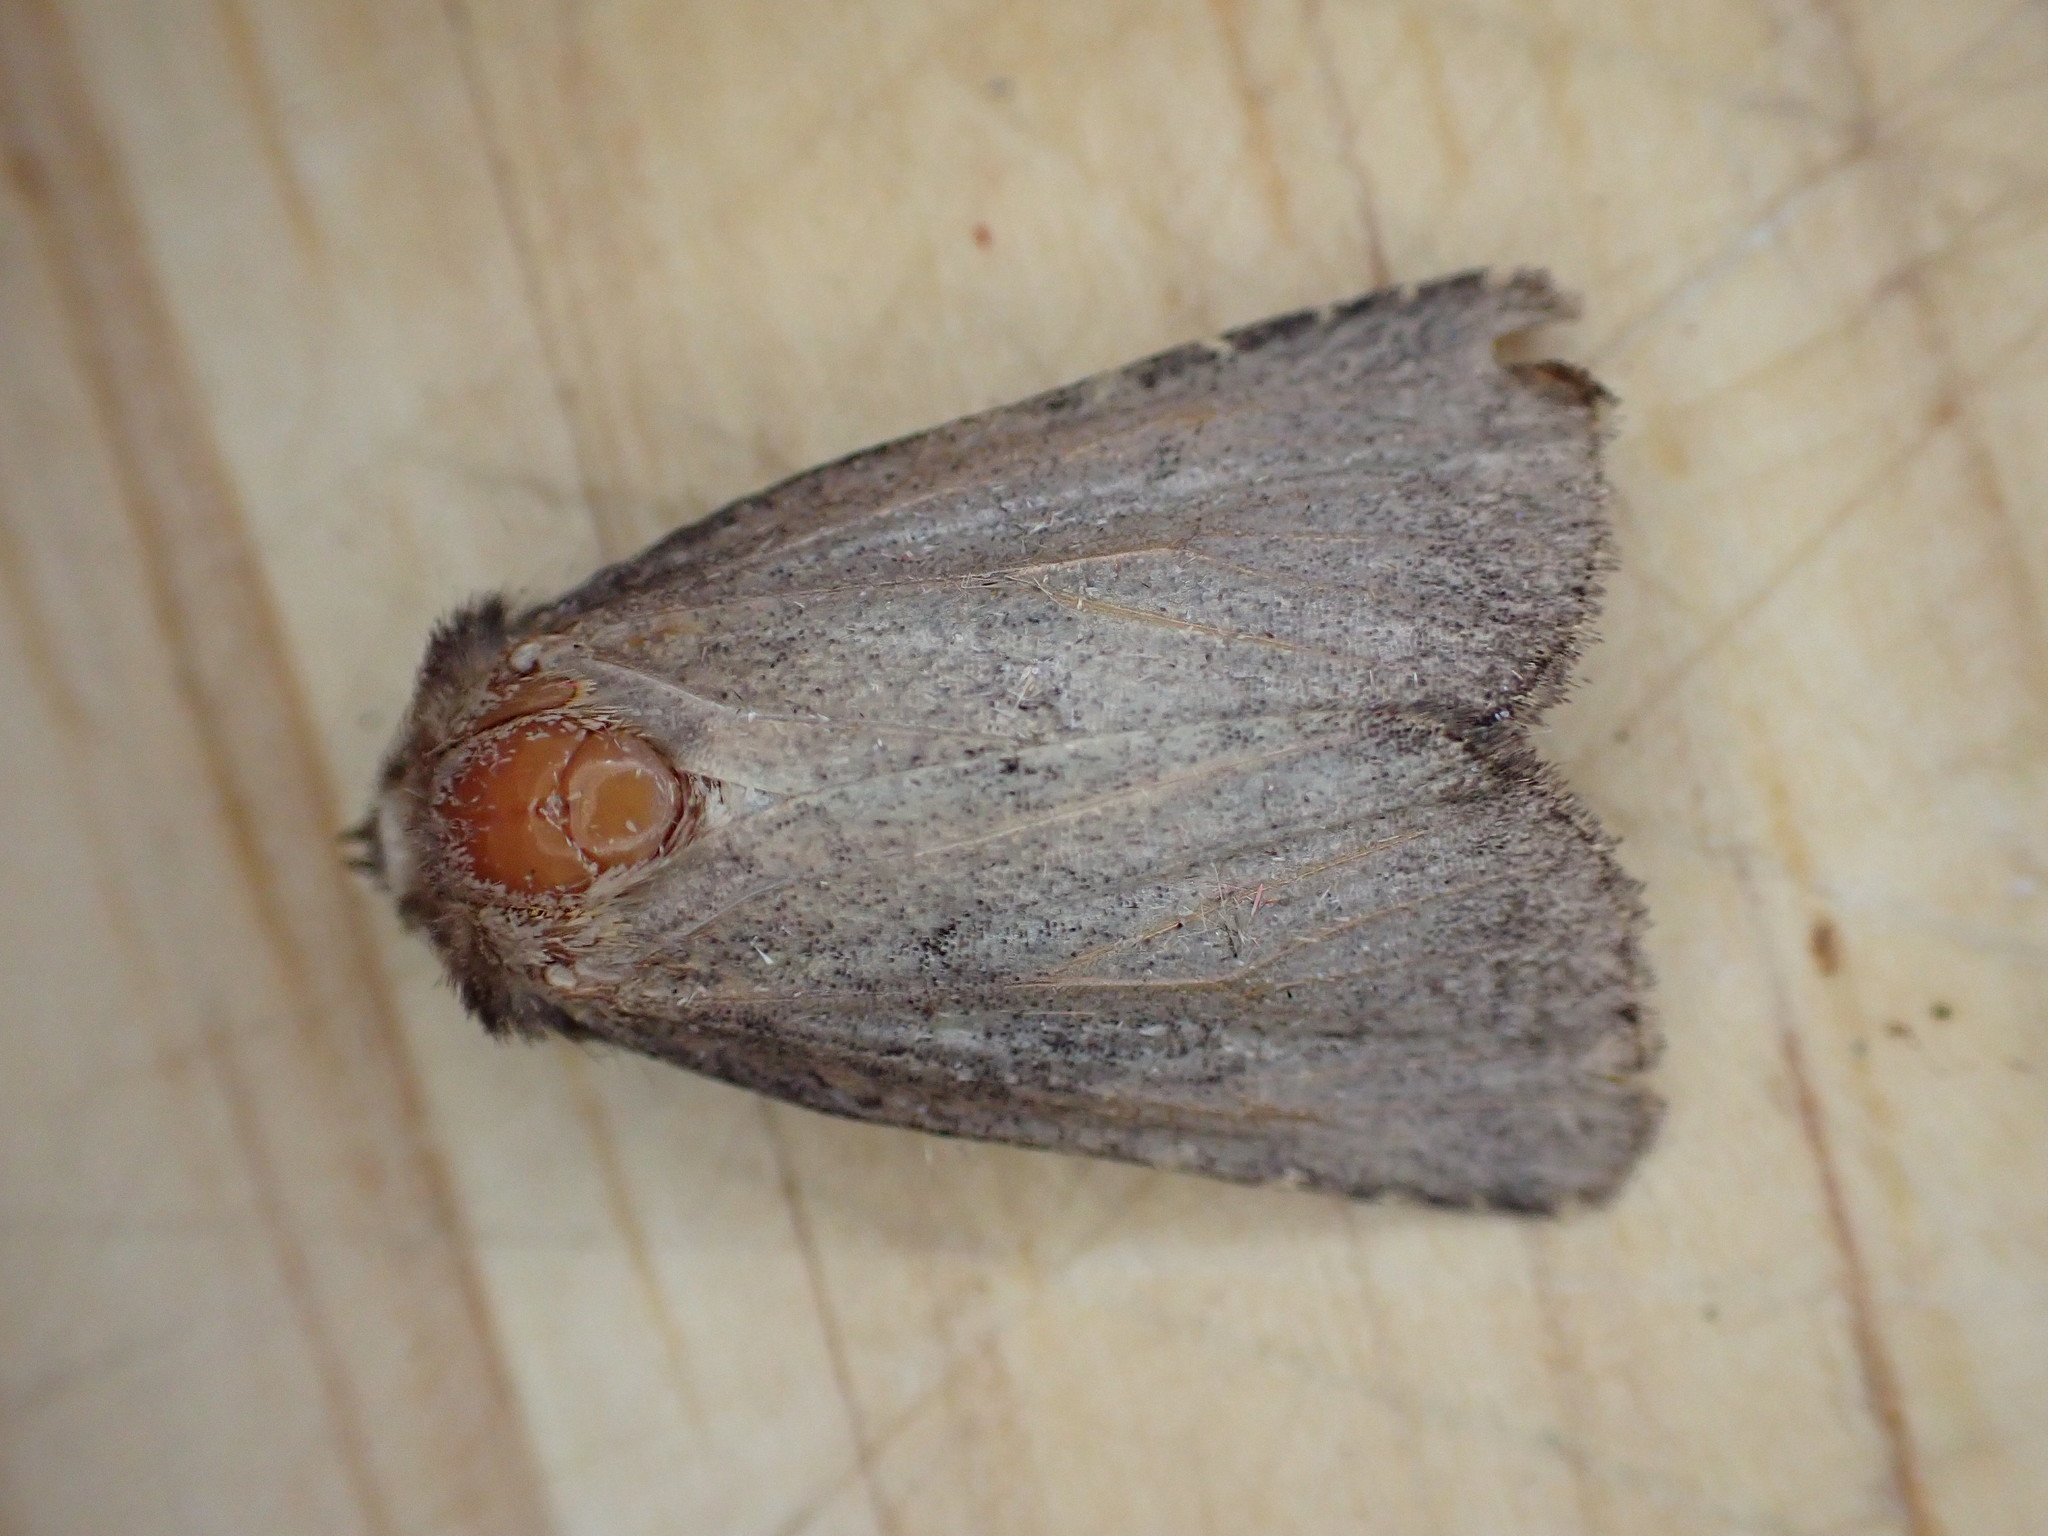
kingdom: Animalia
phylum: Arthropoda
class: Insecta
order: Lepidoptera
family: Noctuidae
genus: Charanyca
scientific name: Charanyca ferruginea
